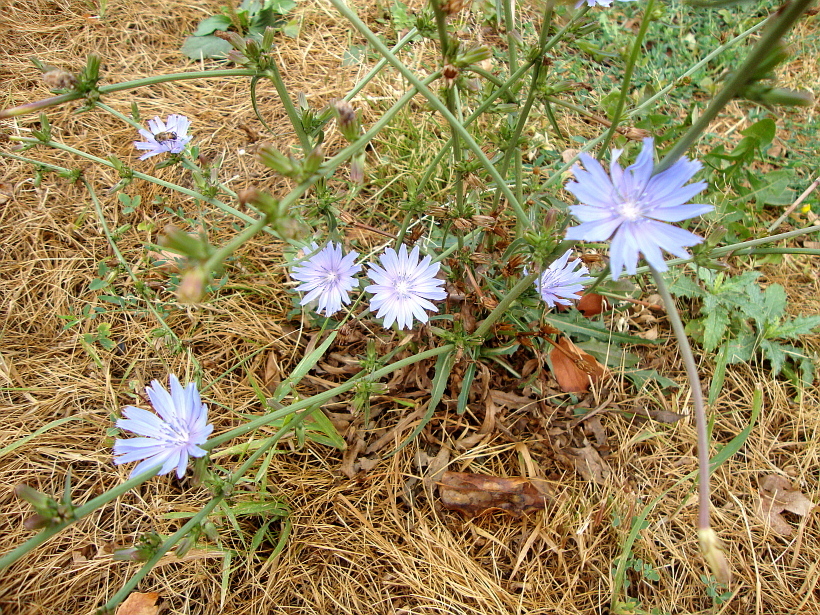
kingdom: Plantae
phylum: Tracheophyta
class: Magnoliopsida
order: Asterales
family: Asteraceae
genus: Cichorium
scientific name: Cichorium intybus
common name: Chicory
